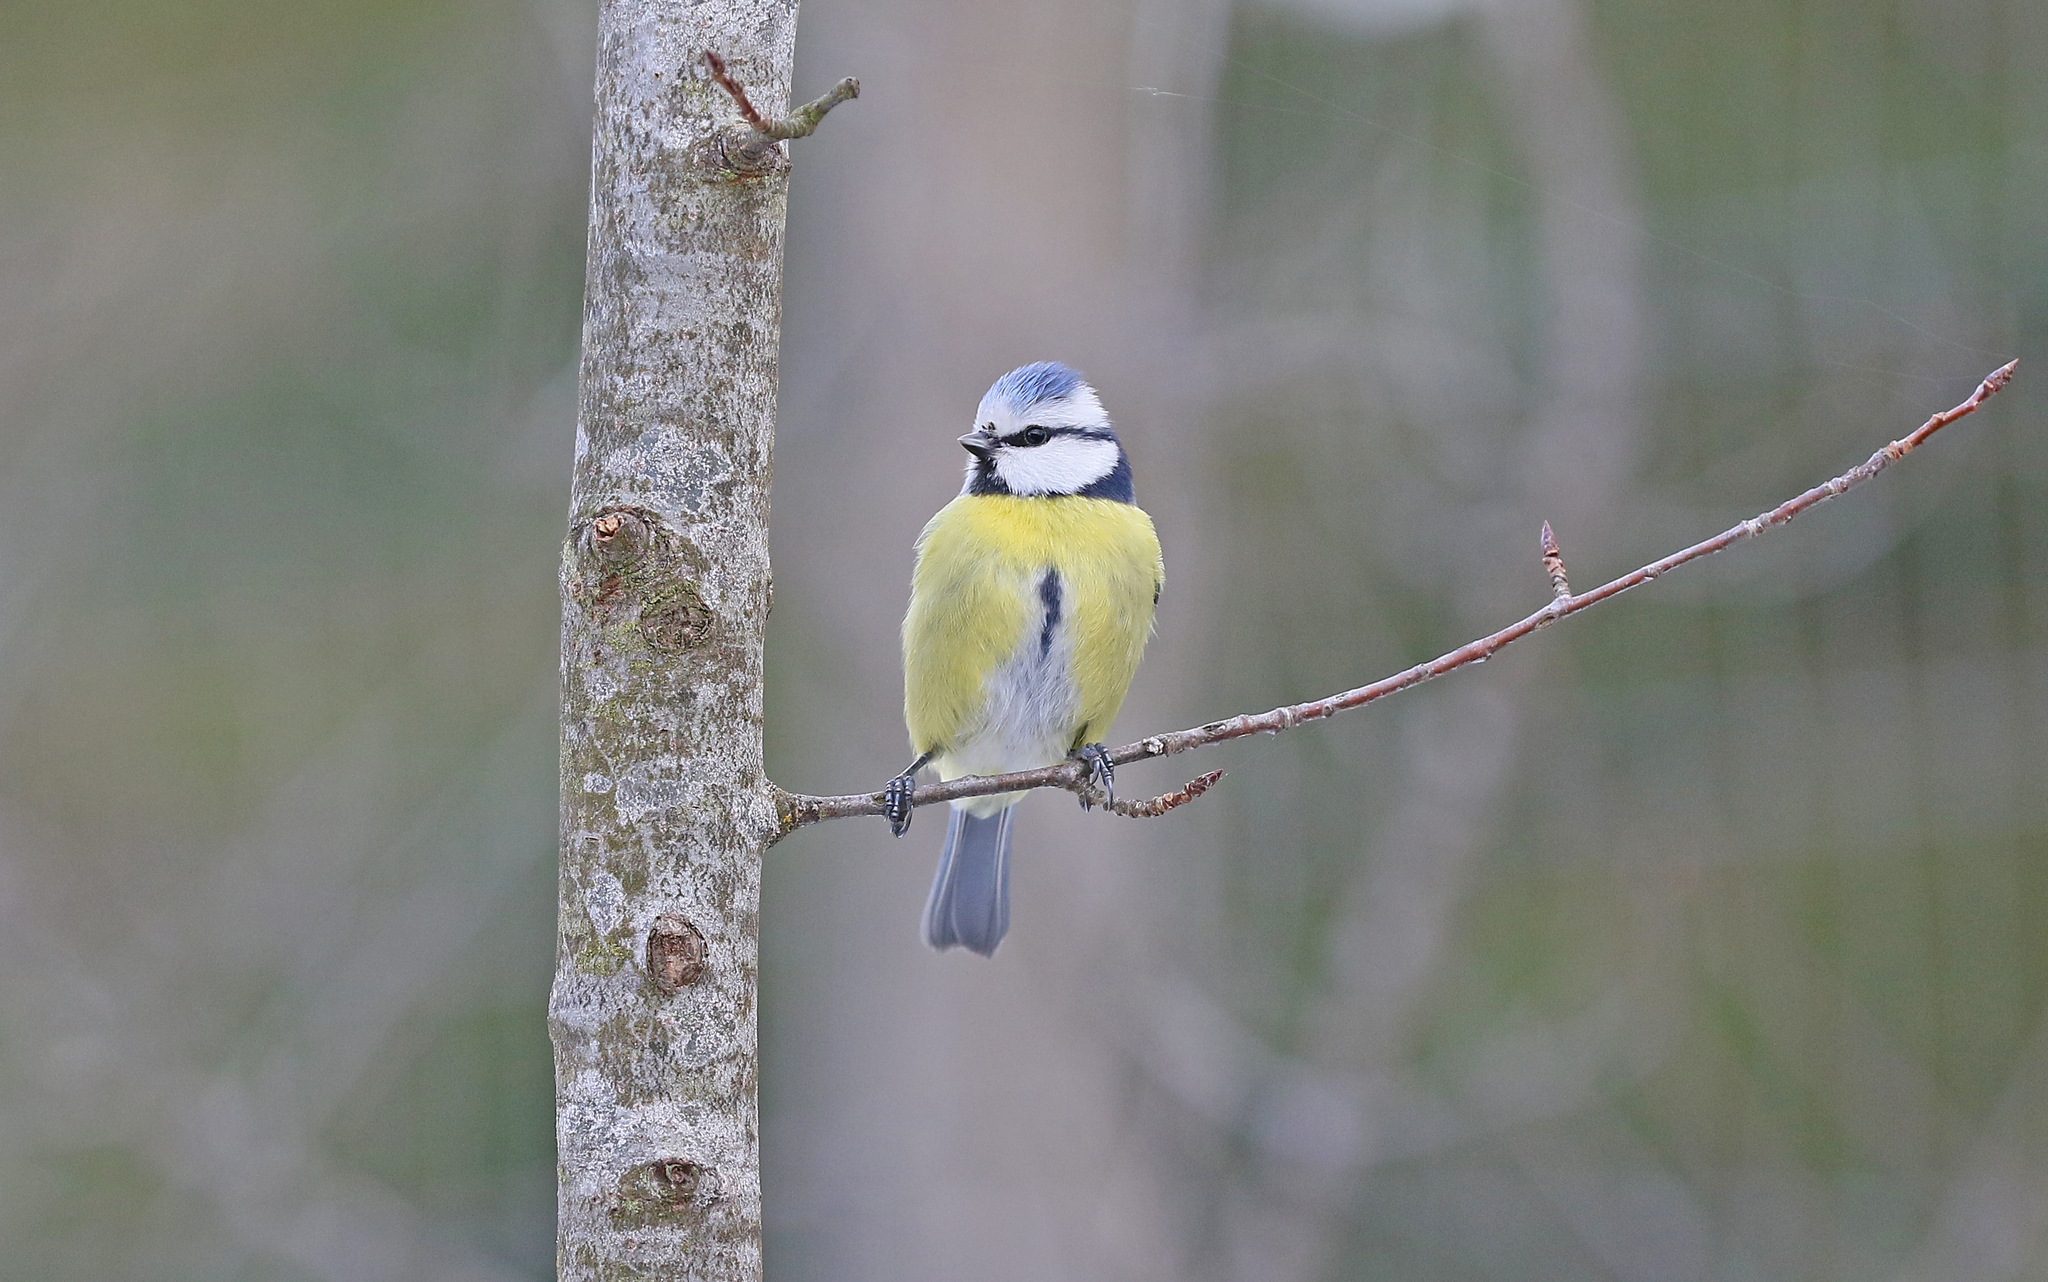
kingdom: Animalia
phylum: Chordata
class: Aves
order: Passeriformes
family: Paridae
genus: Cyanistes
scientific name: Cyanistes caeruleus
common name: Eurasian blue tit
